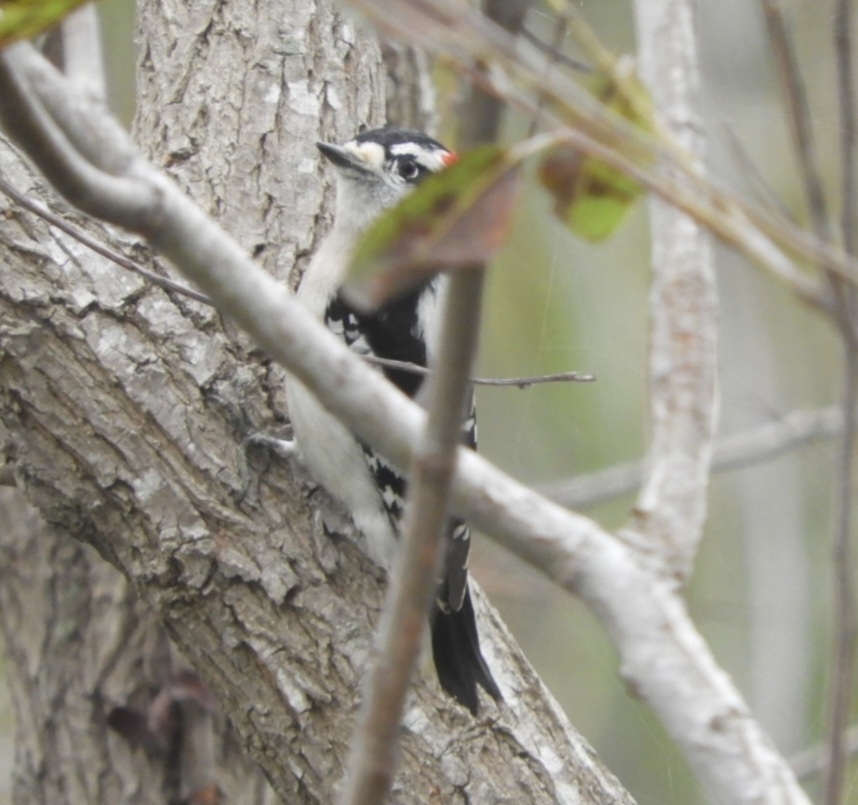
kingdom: Animalia
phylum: Chordata
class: Aves
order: Piciformes
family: Picidae
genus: Dryobates
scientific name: Dryobates pubescens
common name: Downy woodpecker
